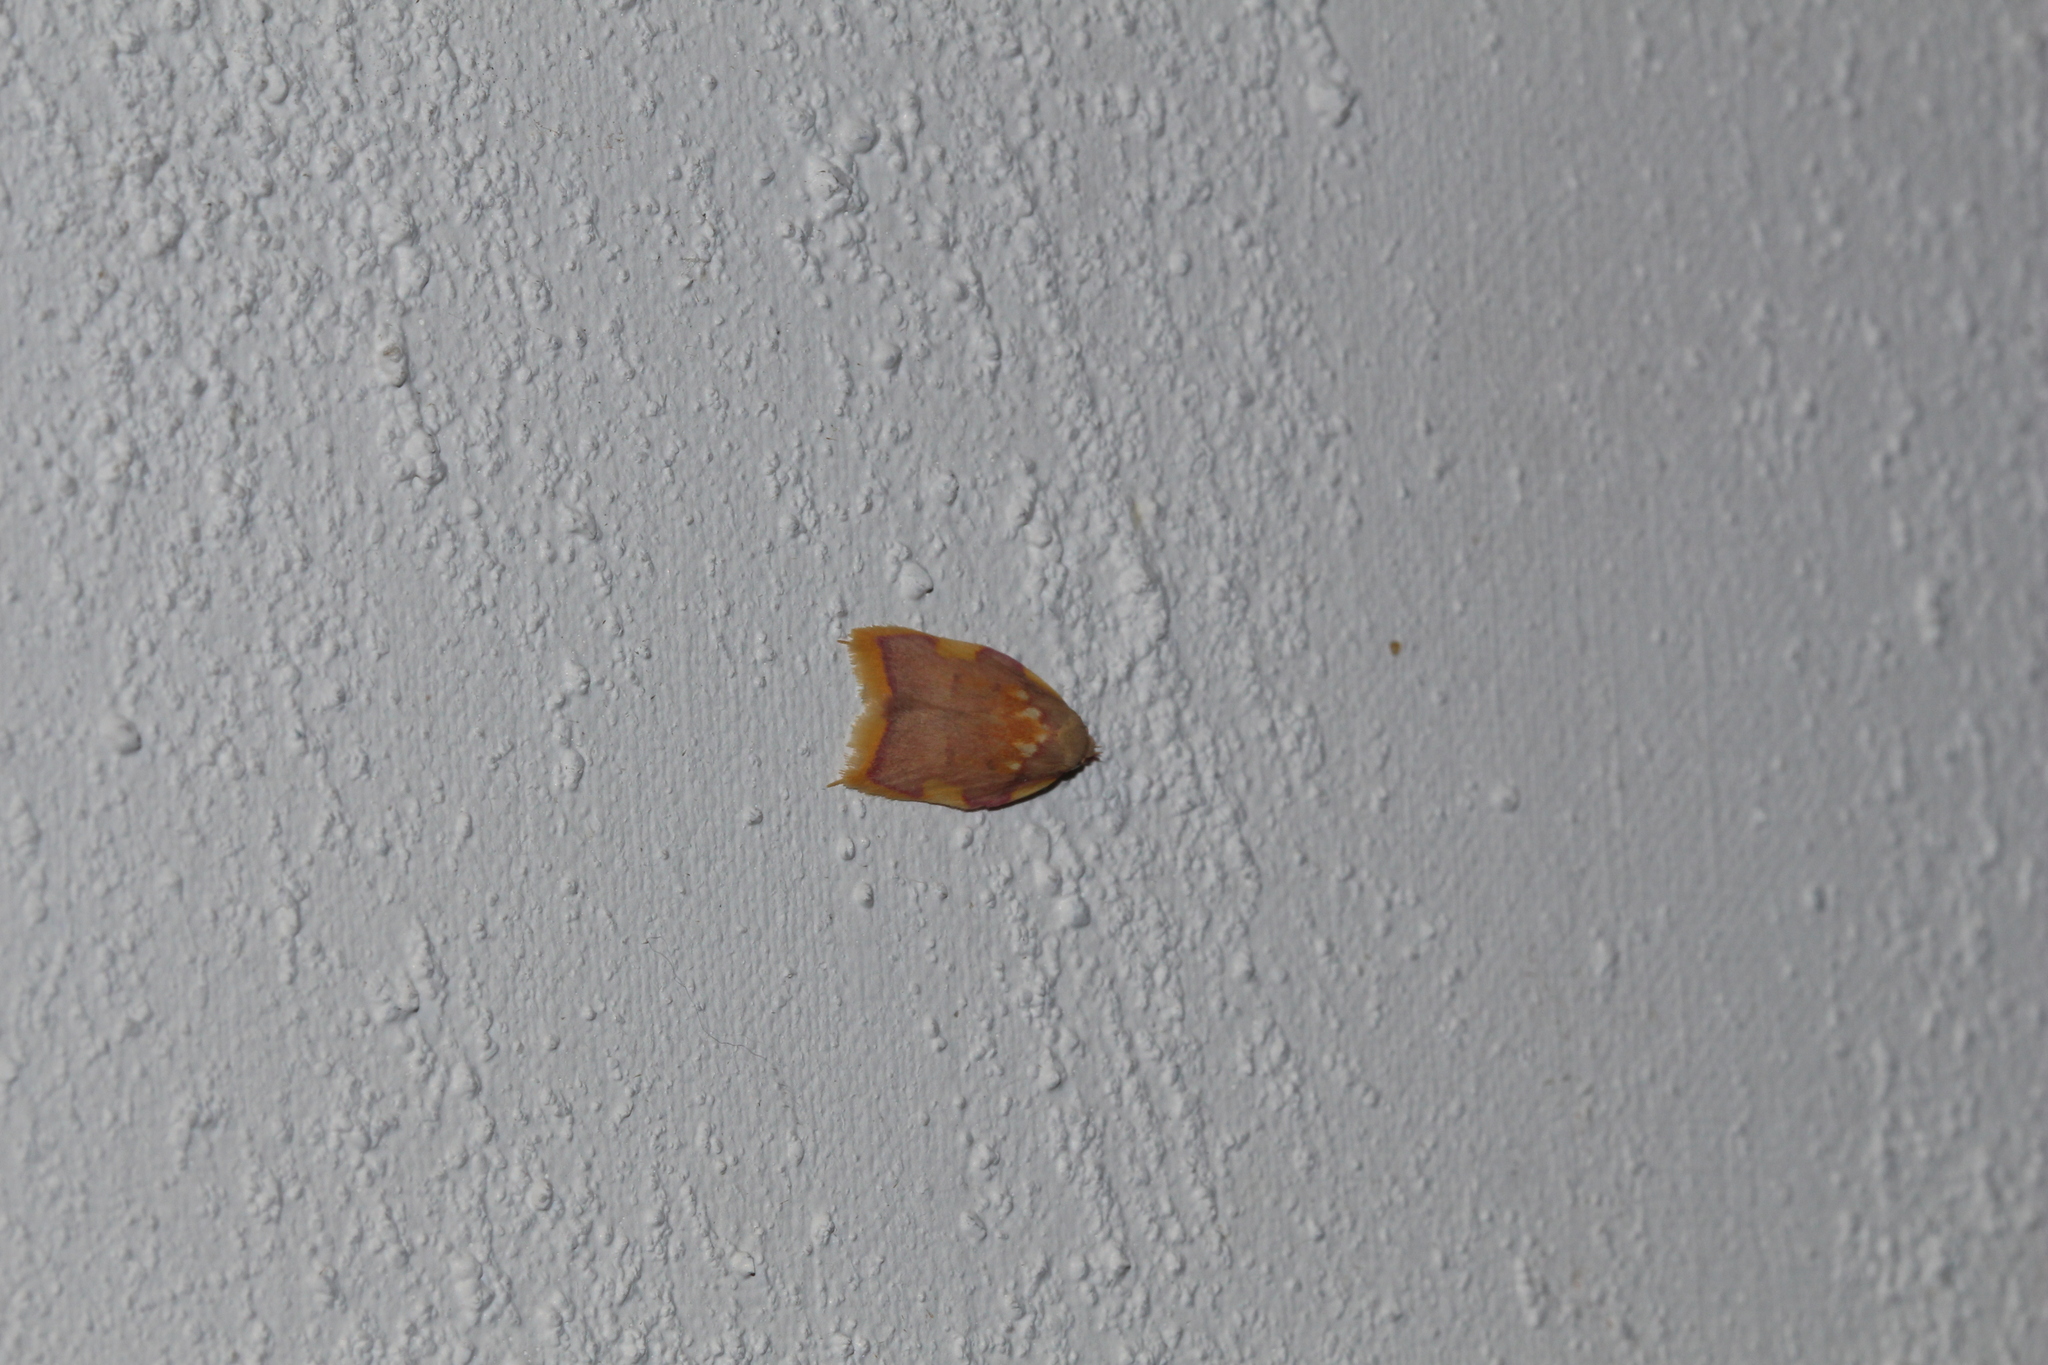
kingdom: Animalia
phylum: Arthropoda
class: Insecta
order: Lepidoptera
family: Peleopodidae
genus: Carcina
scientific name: Carcina quercana
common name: Moth
